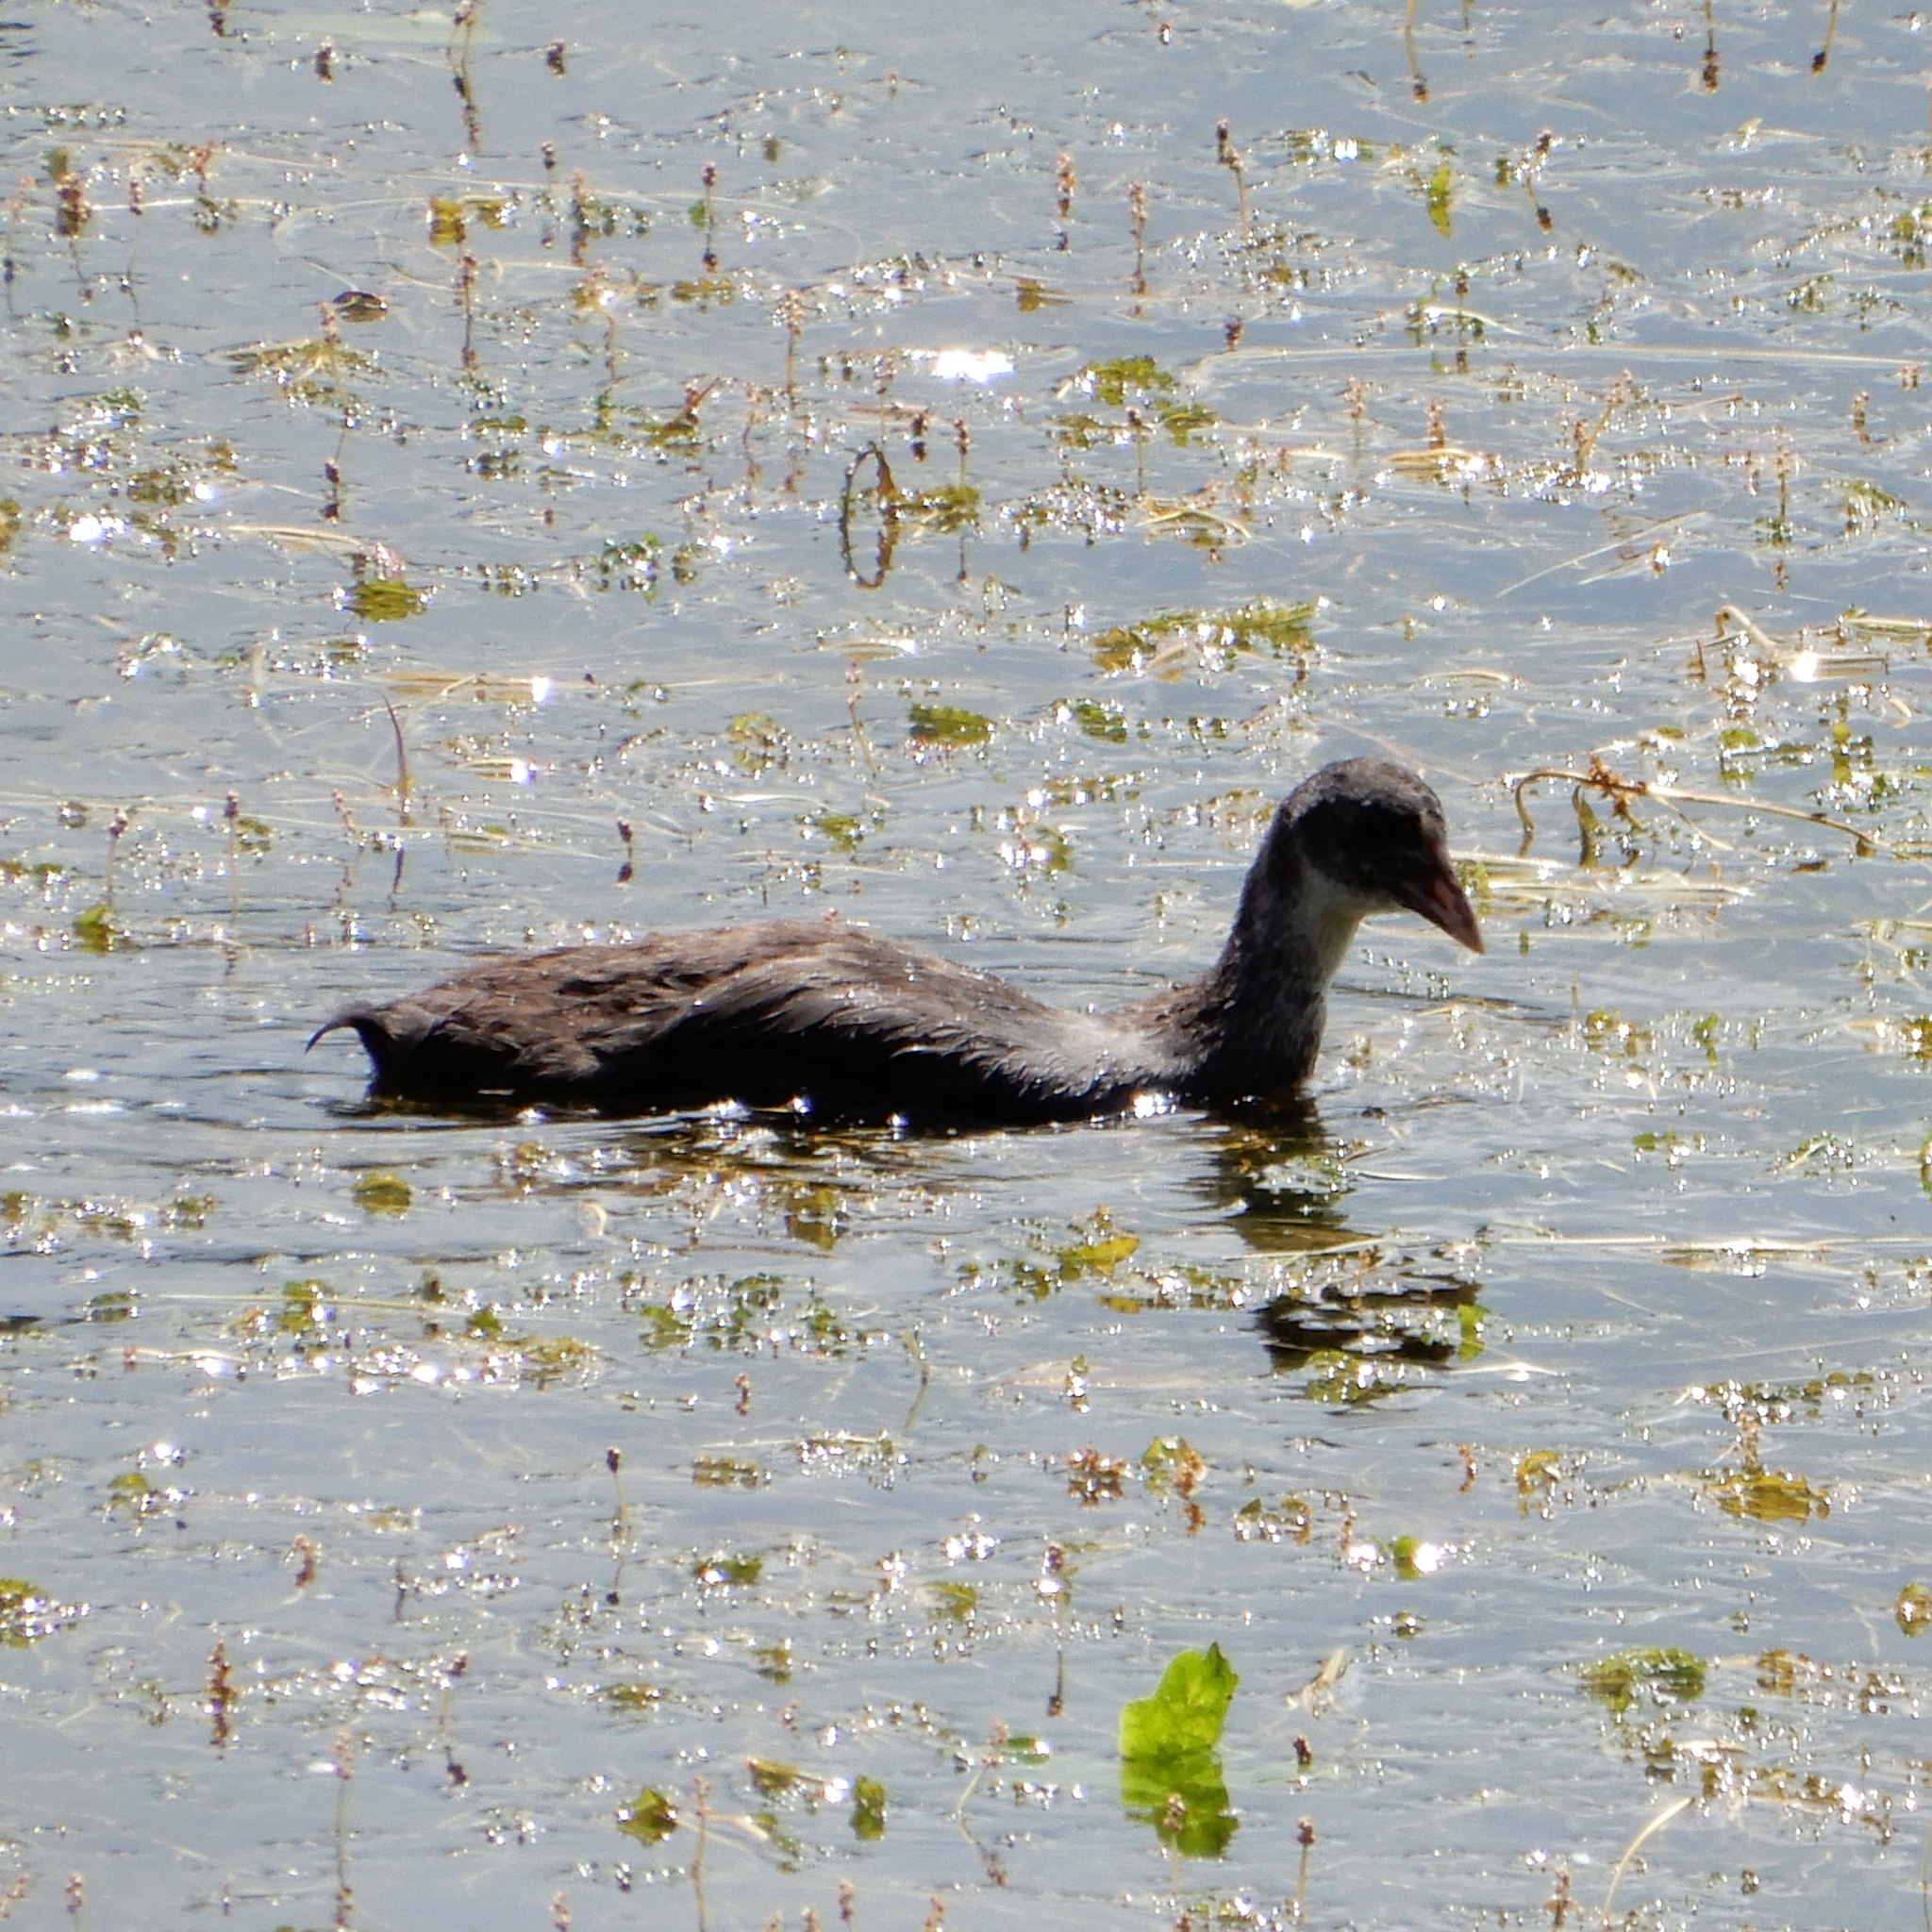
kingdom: Animalia
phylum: Chordata
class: Aves
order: Gruiformes
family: Rallidae
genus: Fulica
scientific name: Fulica atra
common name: Eurasian coot
